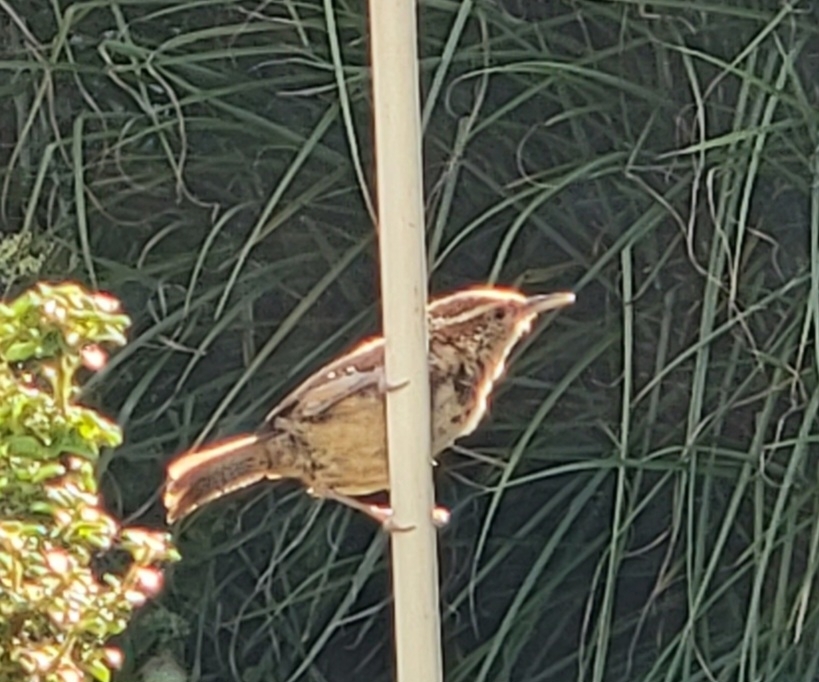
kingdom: Animalia
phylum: Chordata
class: Aves
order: Passeriformes
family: Troglodytidae
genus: Thryothorus
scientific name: Thryothorus ludovicianus
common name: Carolina wren
